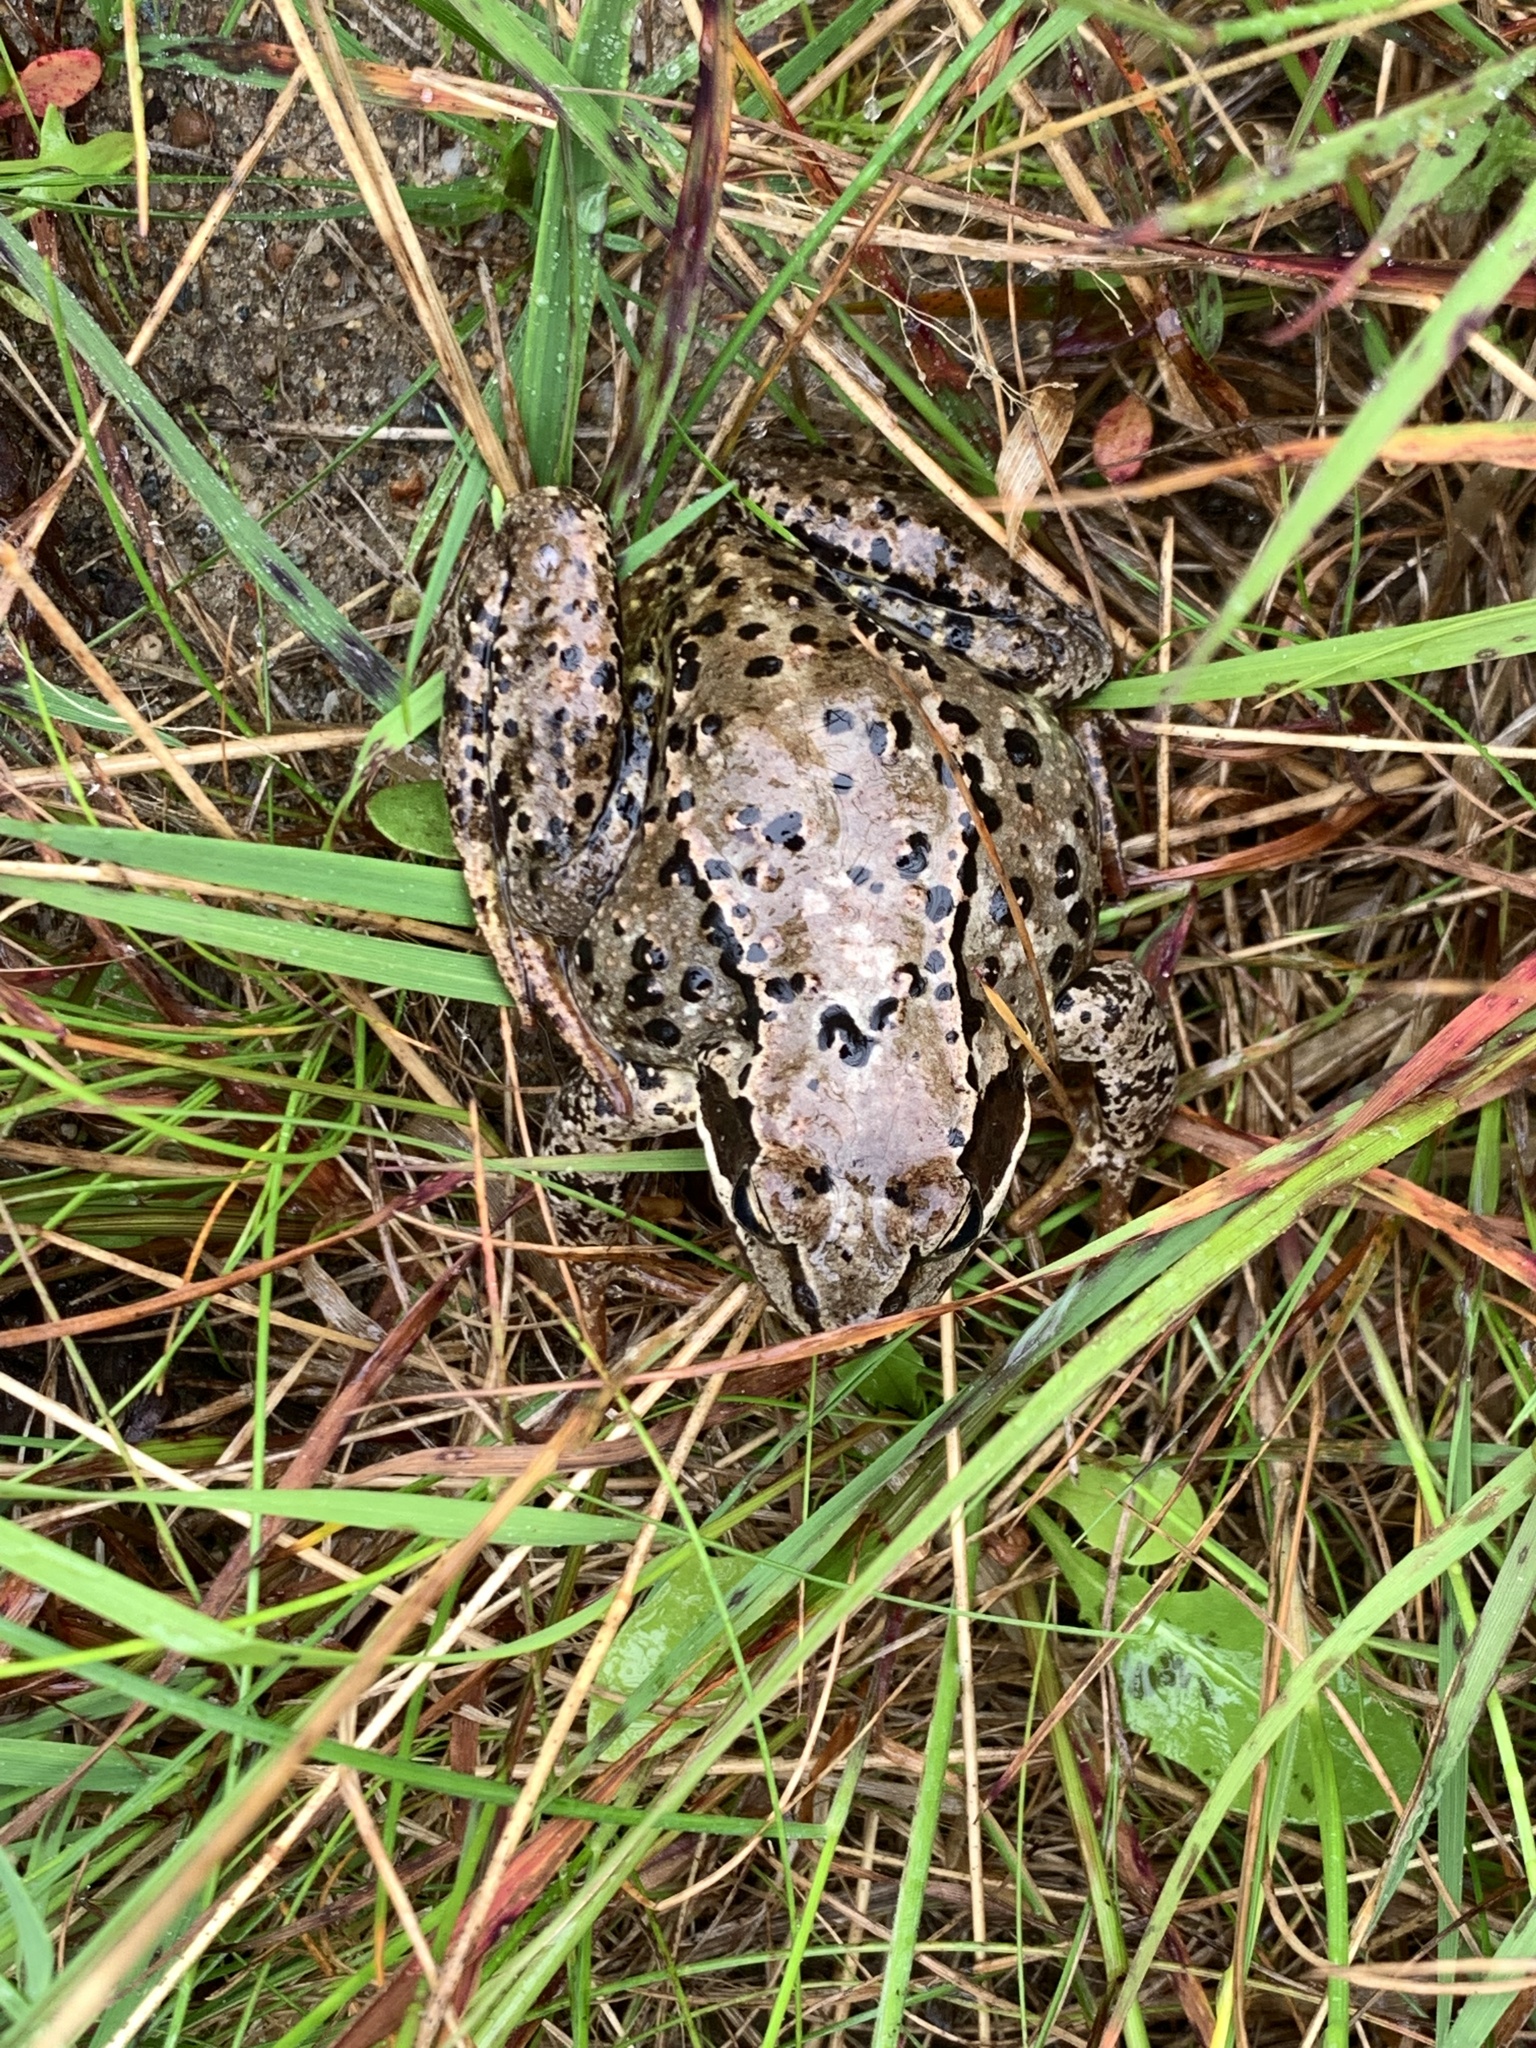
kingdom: Animalia
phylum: Chordata
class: Amphibia
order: Anura
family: Ranidae
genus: Rana
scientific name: Rana temporaria
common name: Common frog
